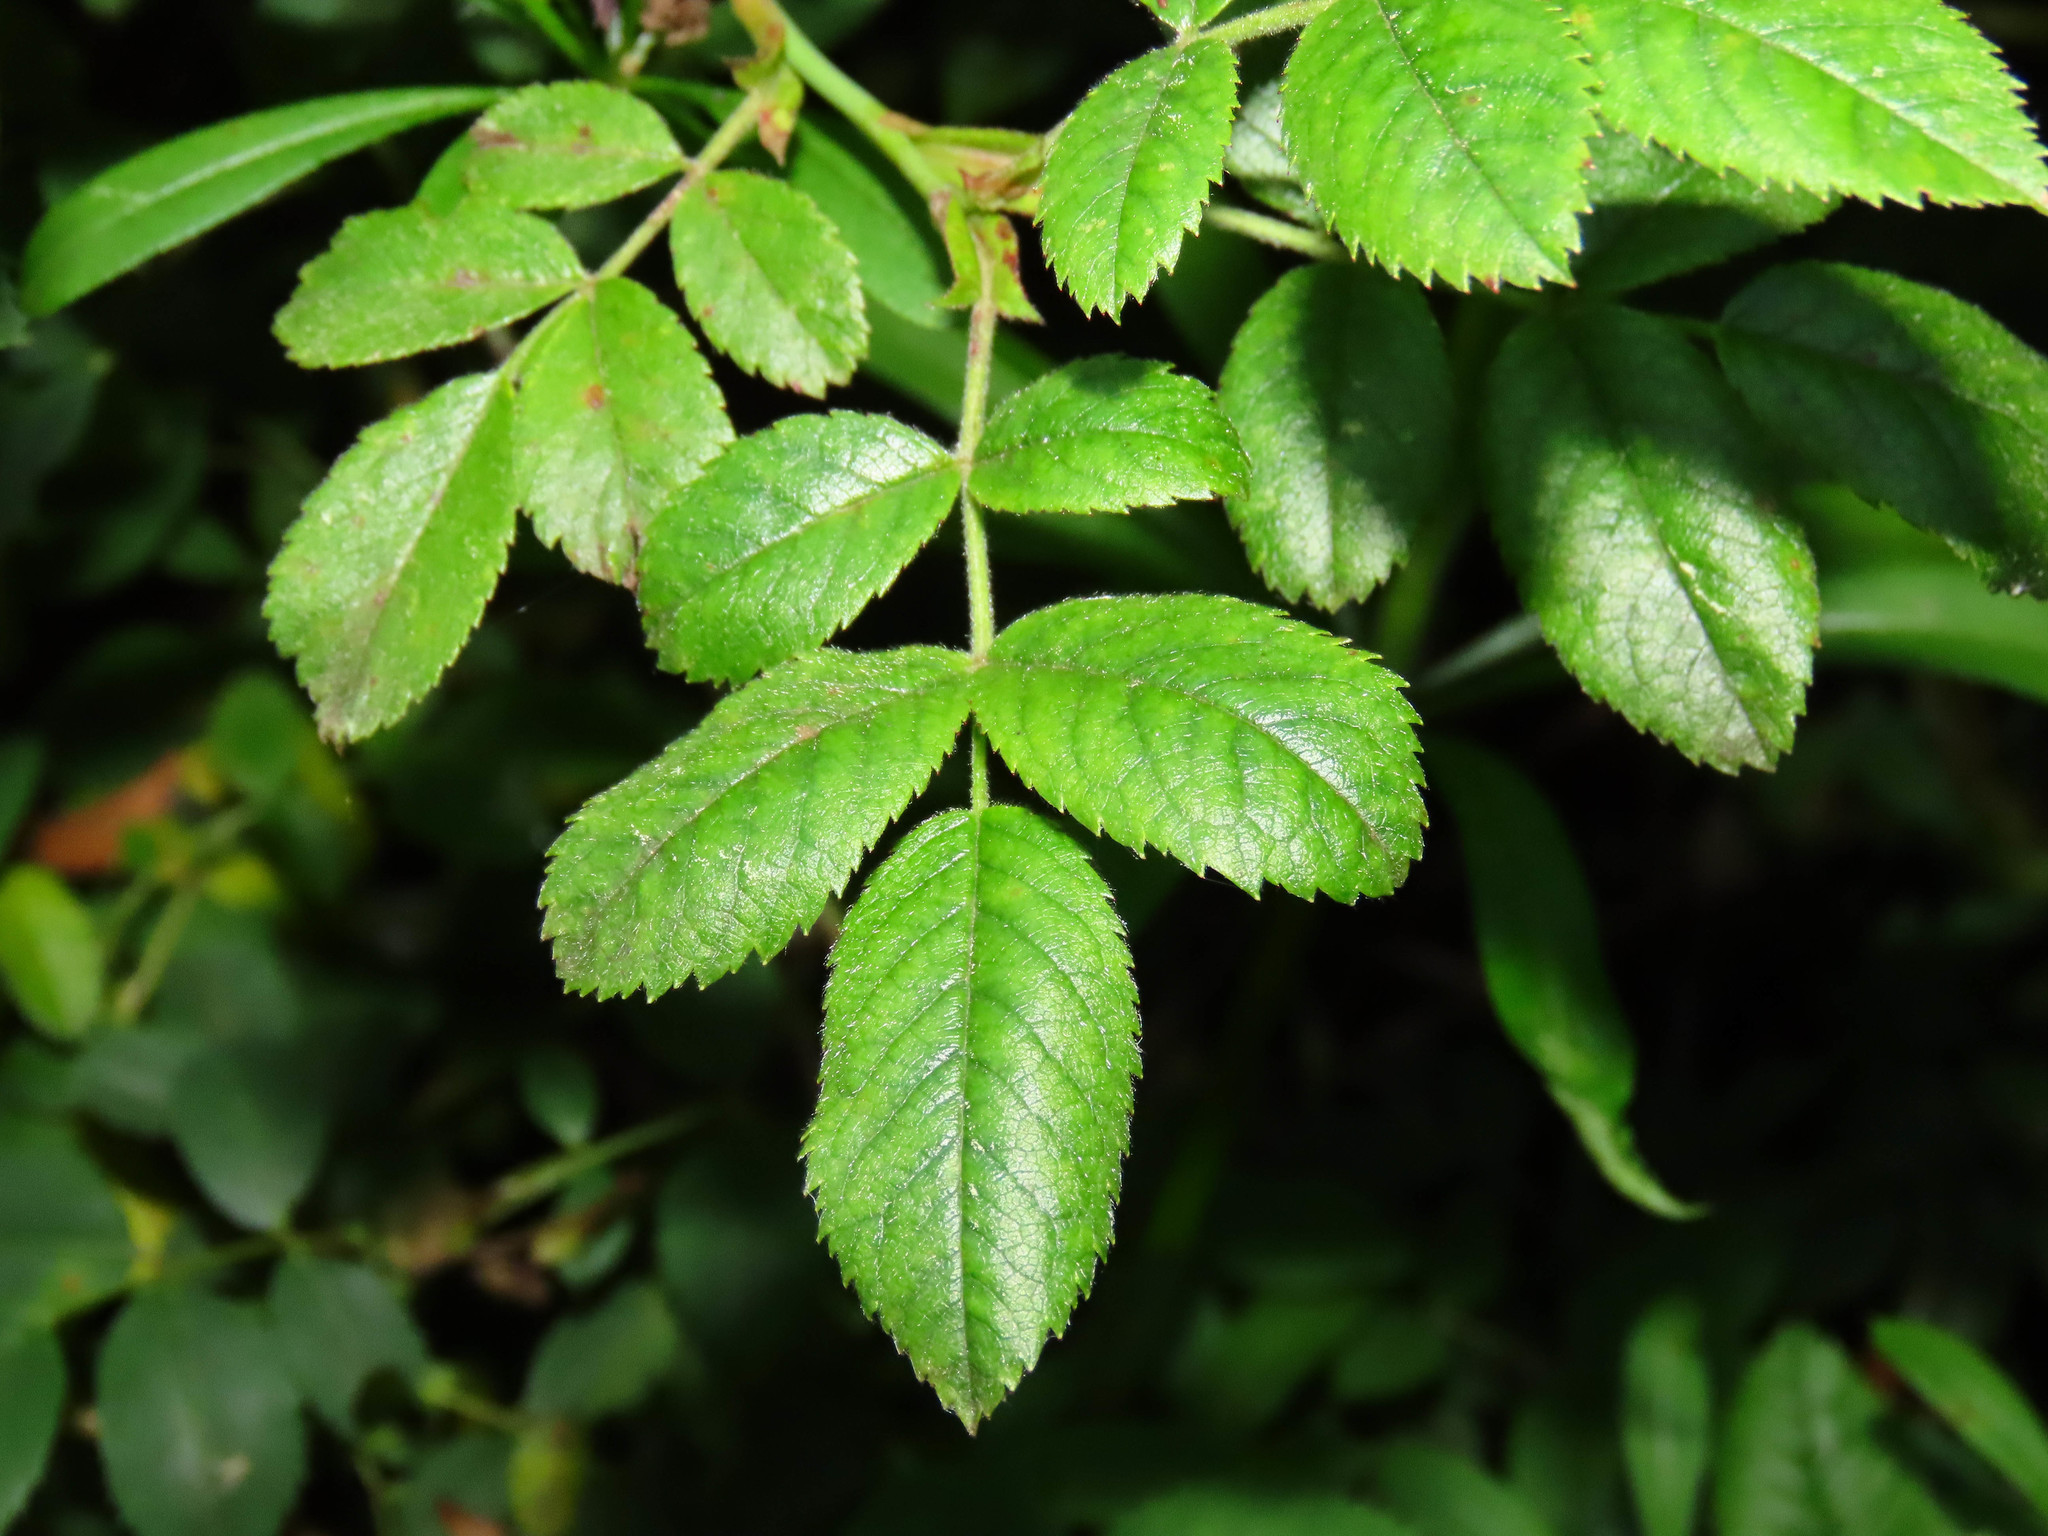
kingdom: Plantae
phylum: Tracheophyta
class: Magnoliopsida
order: Rosales
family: Rosaceae
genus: Rosa
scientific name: Rosa corymbifera
